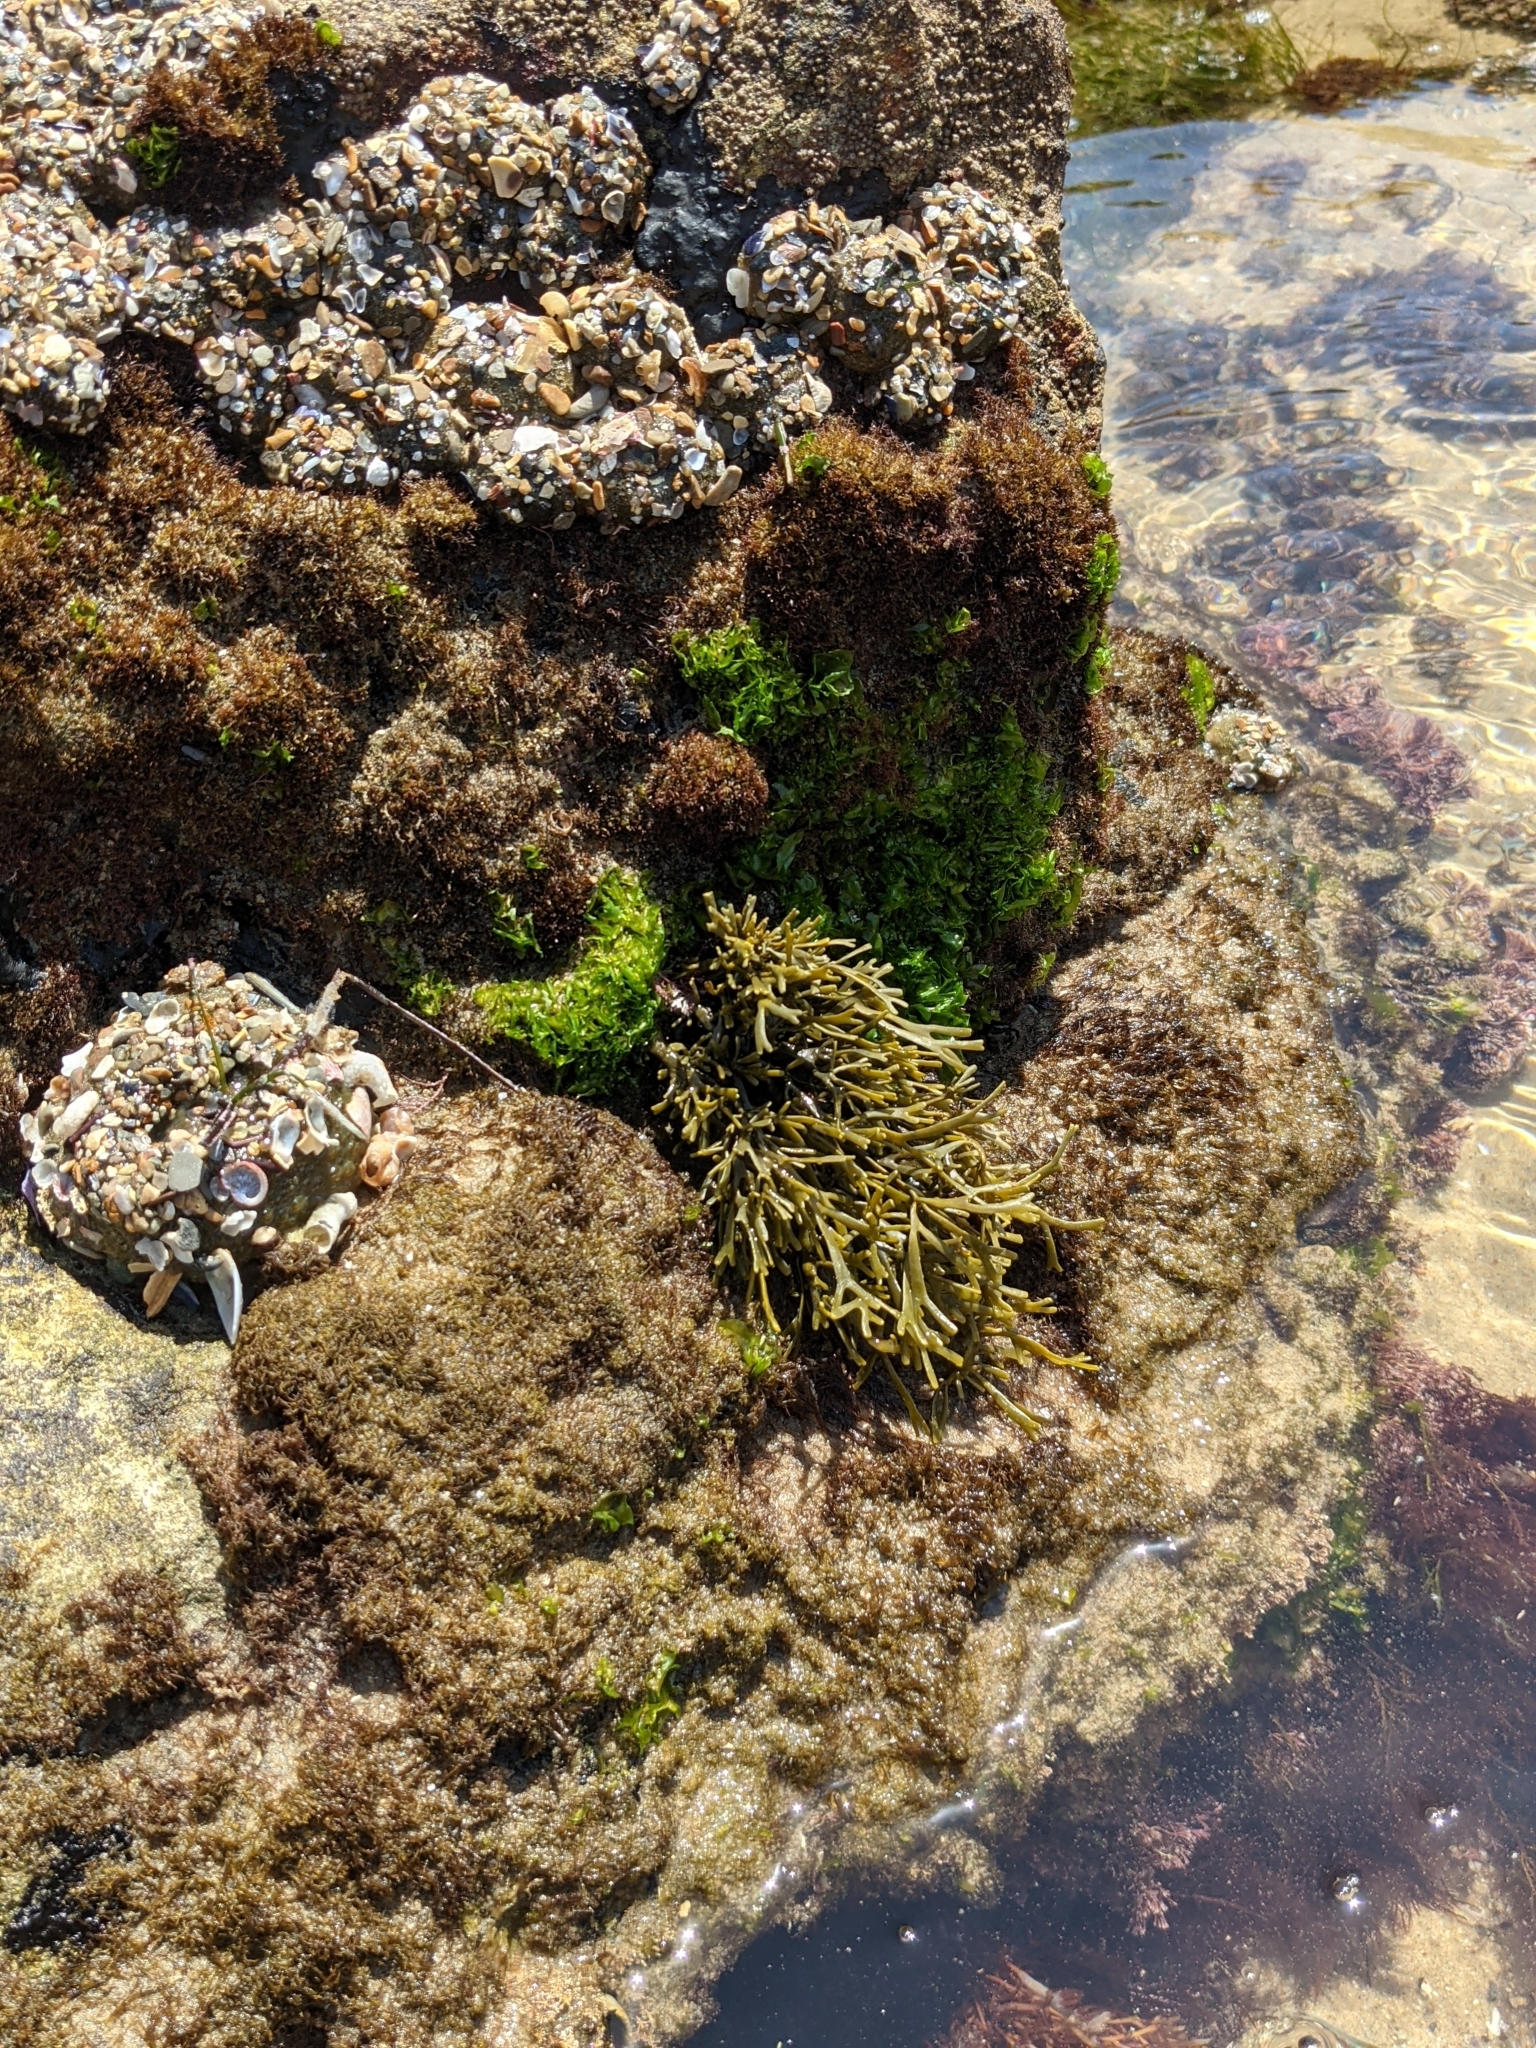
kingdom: Chromista
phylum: Ochrophyta
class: Phaeophyceae
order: Fucales
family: Fucaceae
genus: Silvetia
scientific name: Silvetia
